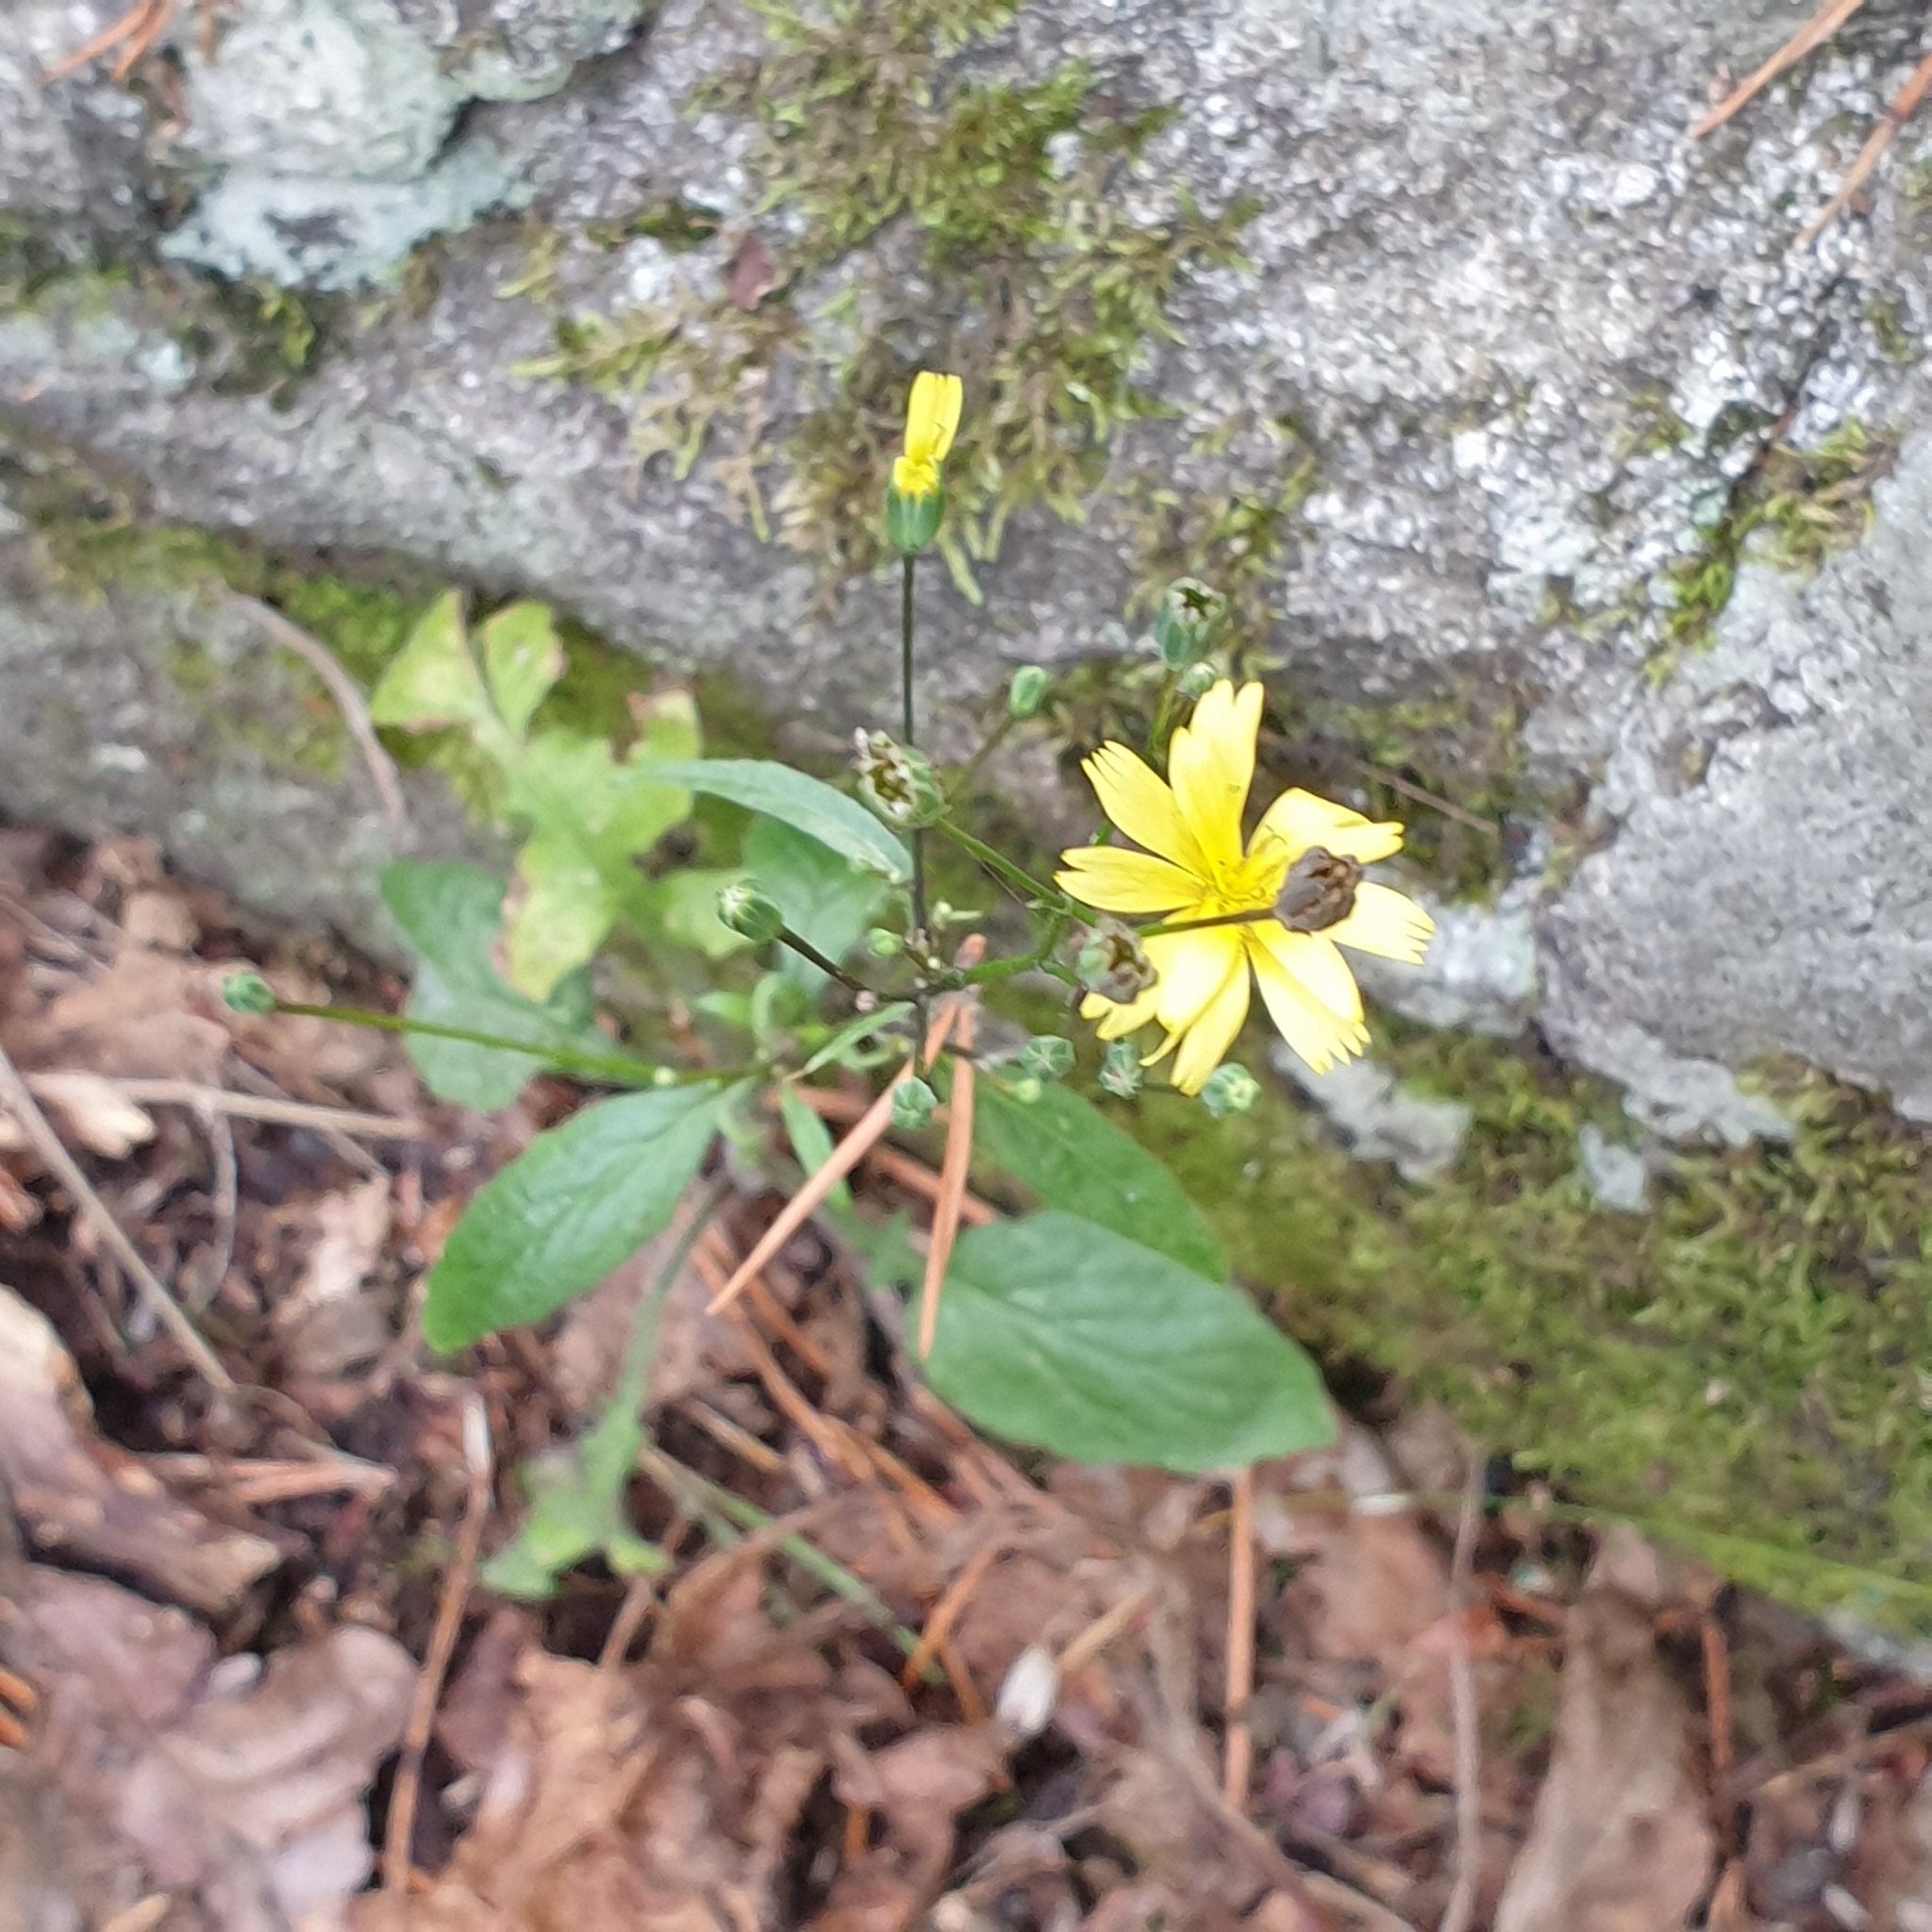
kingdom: Plantae
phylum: Tracheophyta
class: Magnoliopsida
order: Asterales
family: Asteraceae
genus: Lapsana
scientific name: Lapsana communis
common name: Nipplewort
